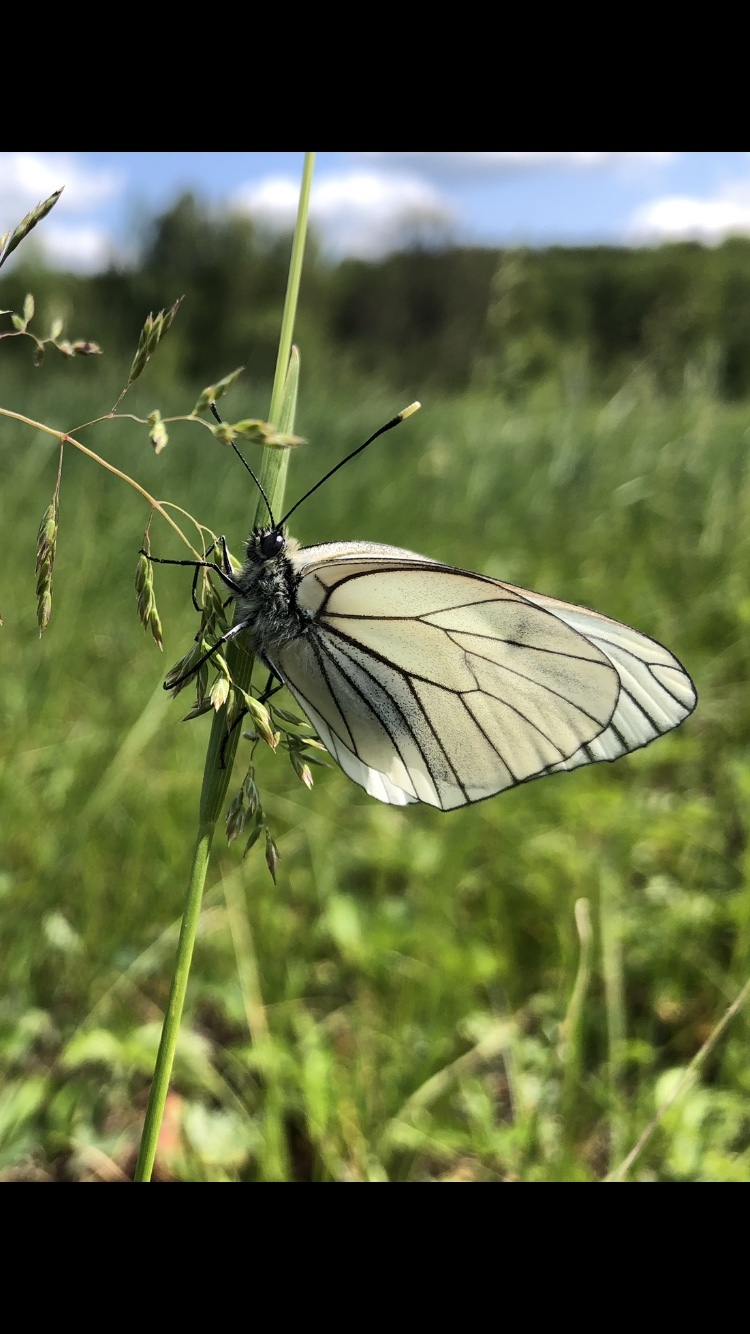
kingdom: Animalia
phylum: Arthropoda
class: Insecta
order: Lepidoptera
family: Pieridae
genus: Aporia
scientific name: Aporia crataegi
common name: Black-veined white
